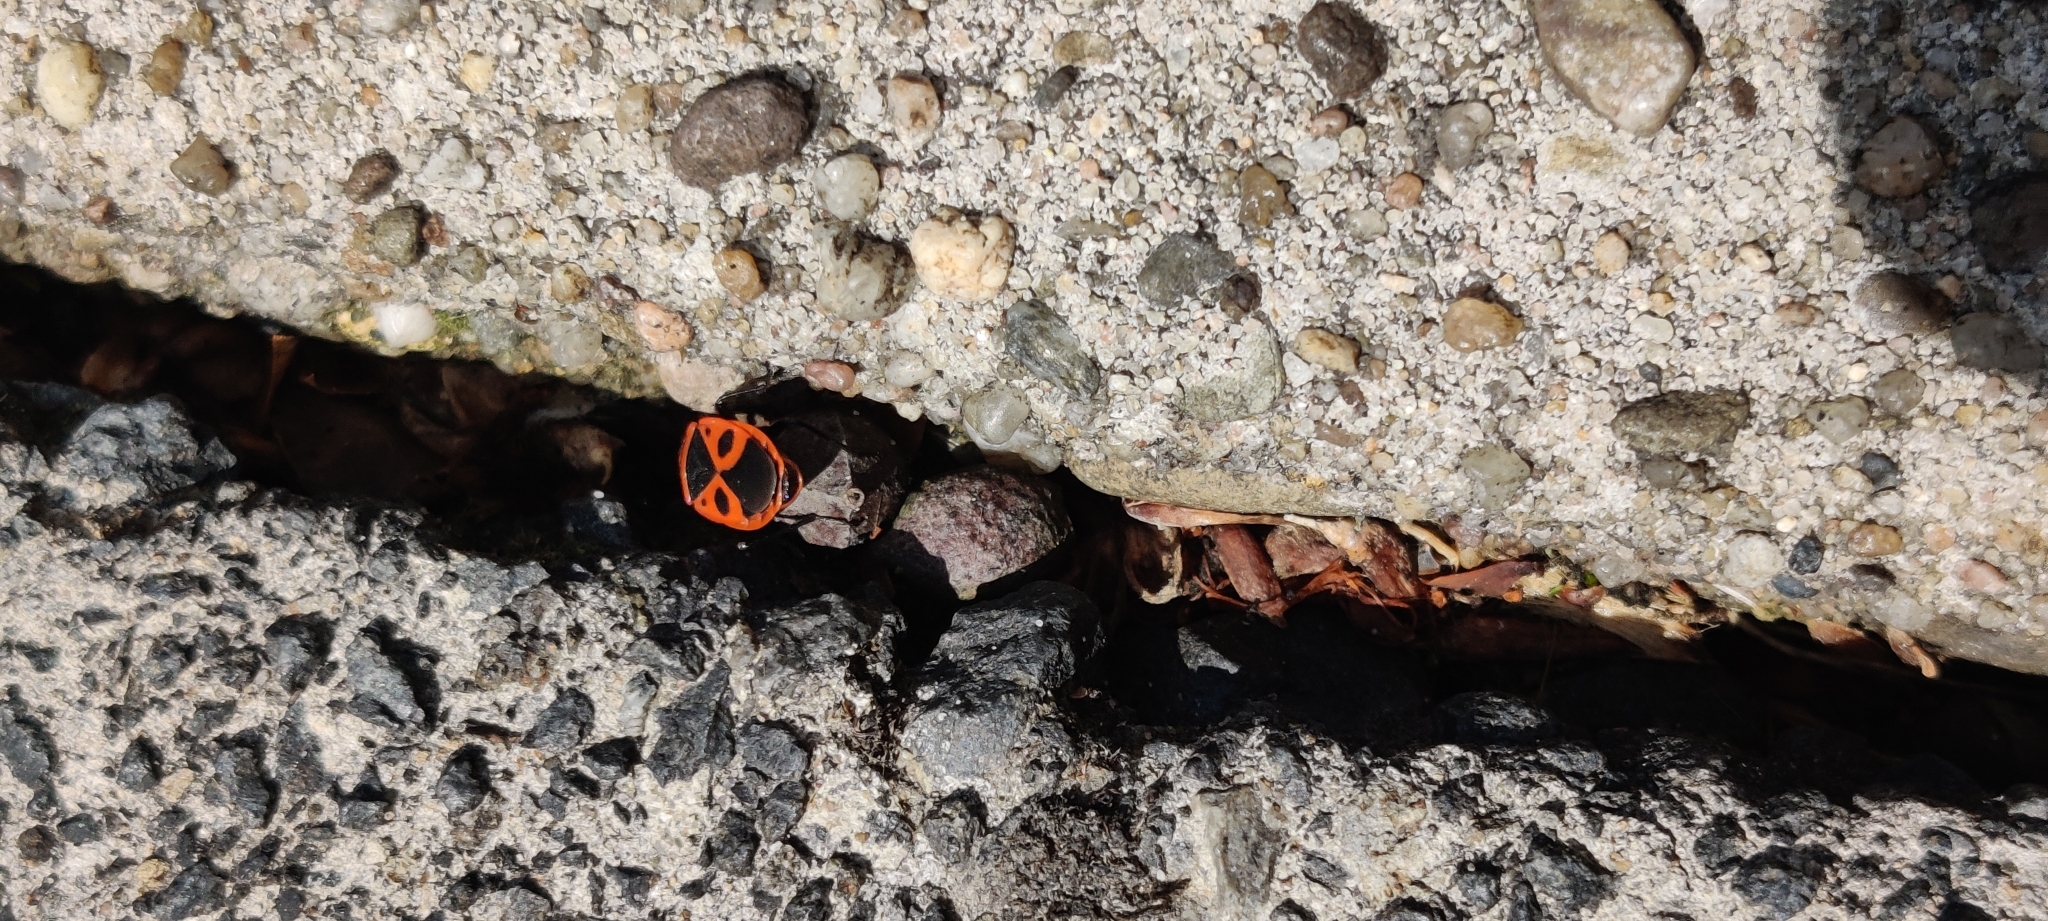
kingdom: Animalia
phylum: Arthropoda
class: Insecta
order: Hemiptera
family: Pyrrhocoridae
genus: Pyrrhocoris
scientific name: Pyrrhocoris apterus
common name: Firebug
